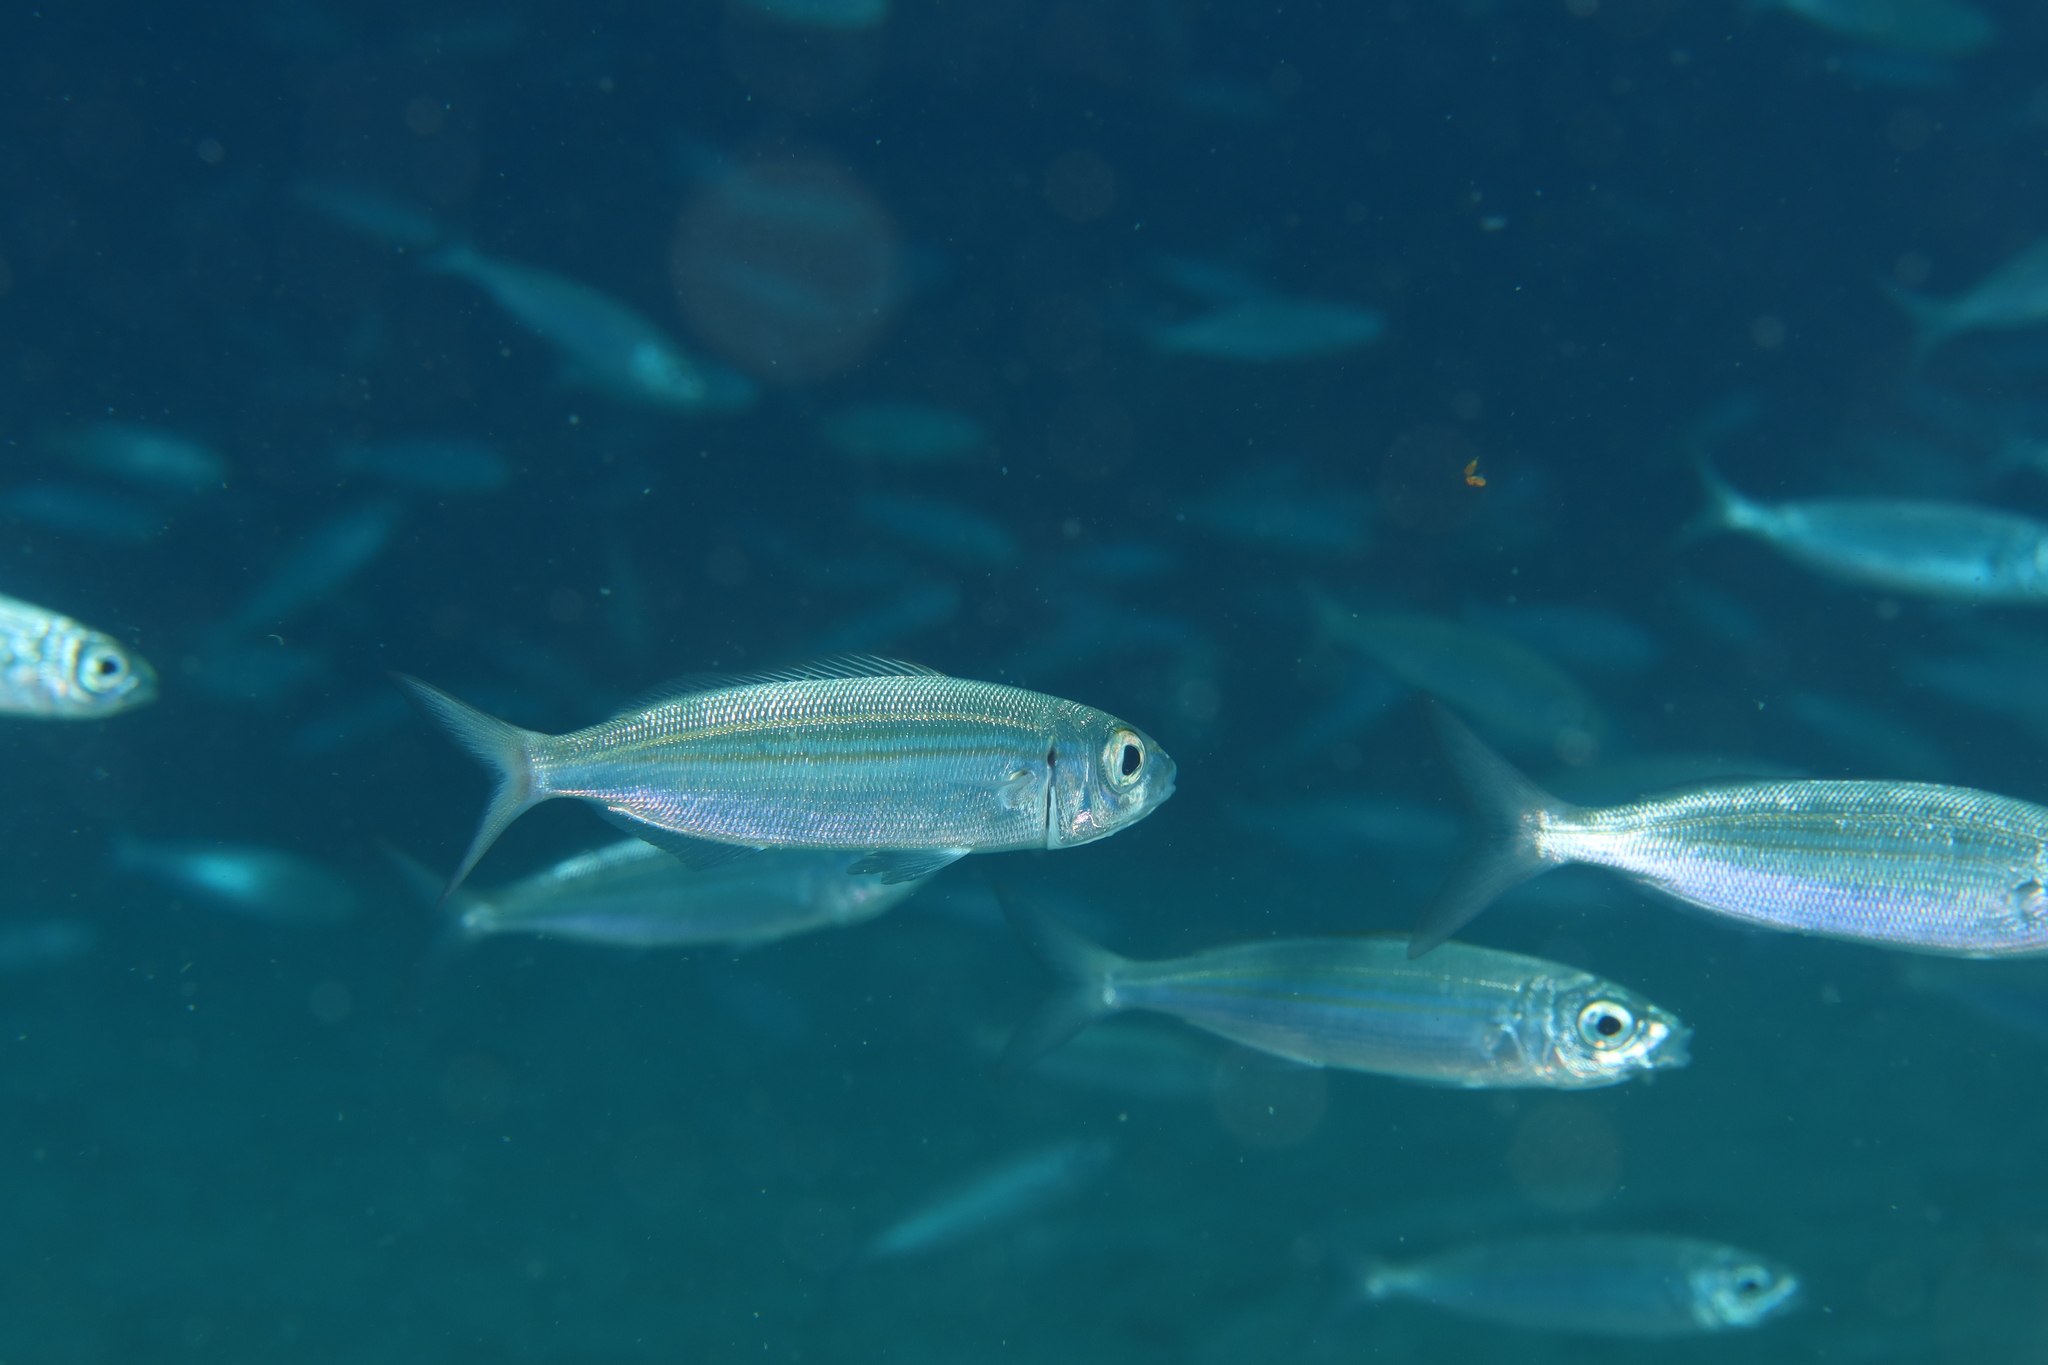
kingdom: Animalia
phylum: Chordata
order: Perciformes
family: Sparidae
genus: Boops
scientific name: Boops boops
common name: Bogue
